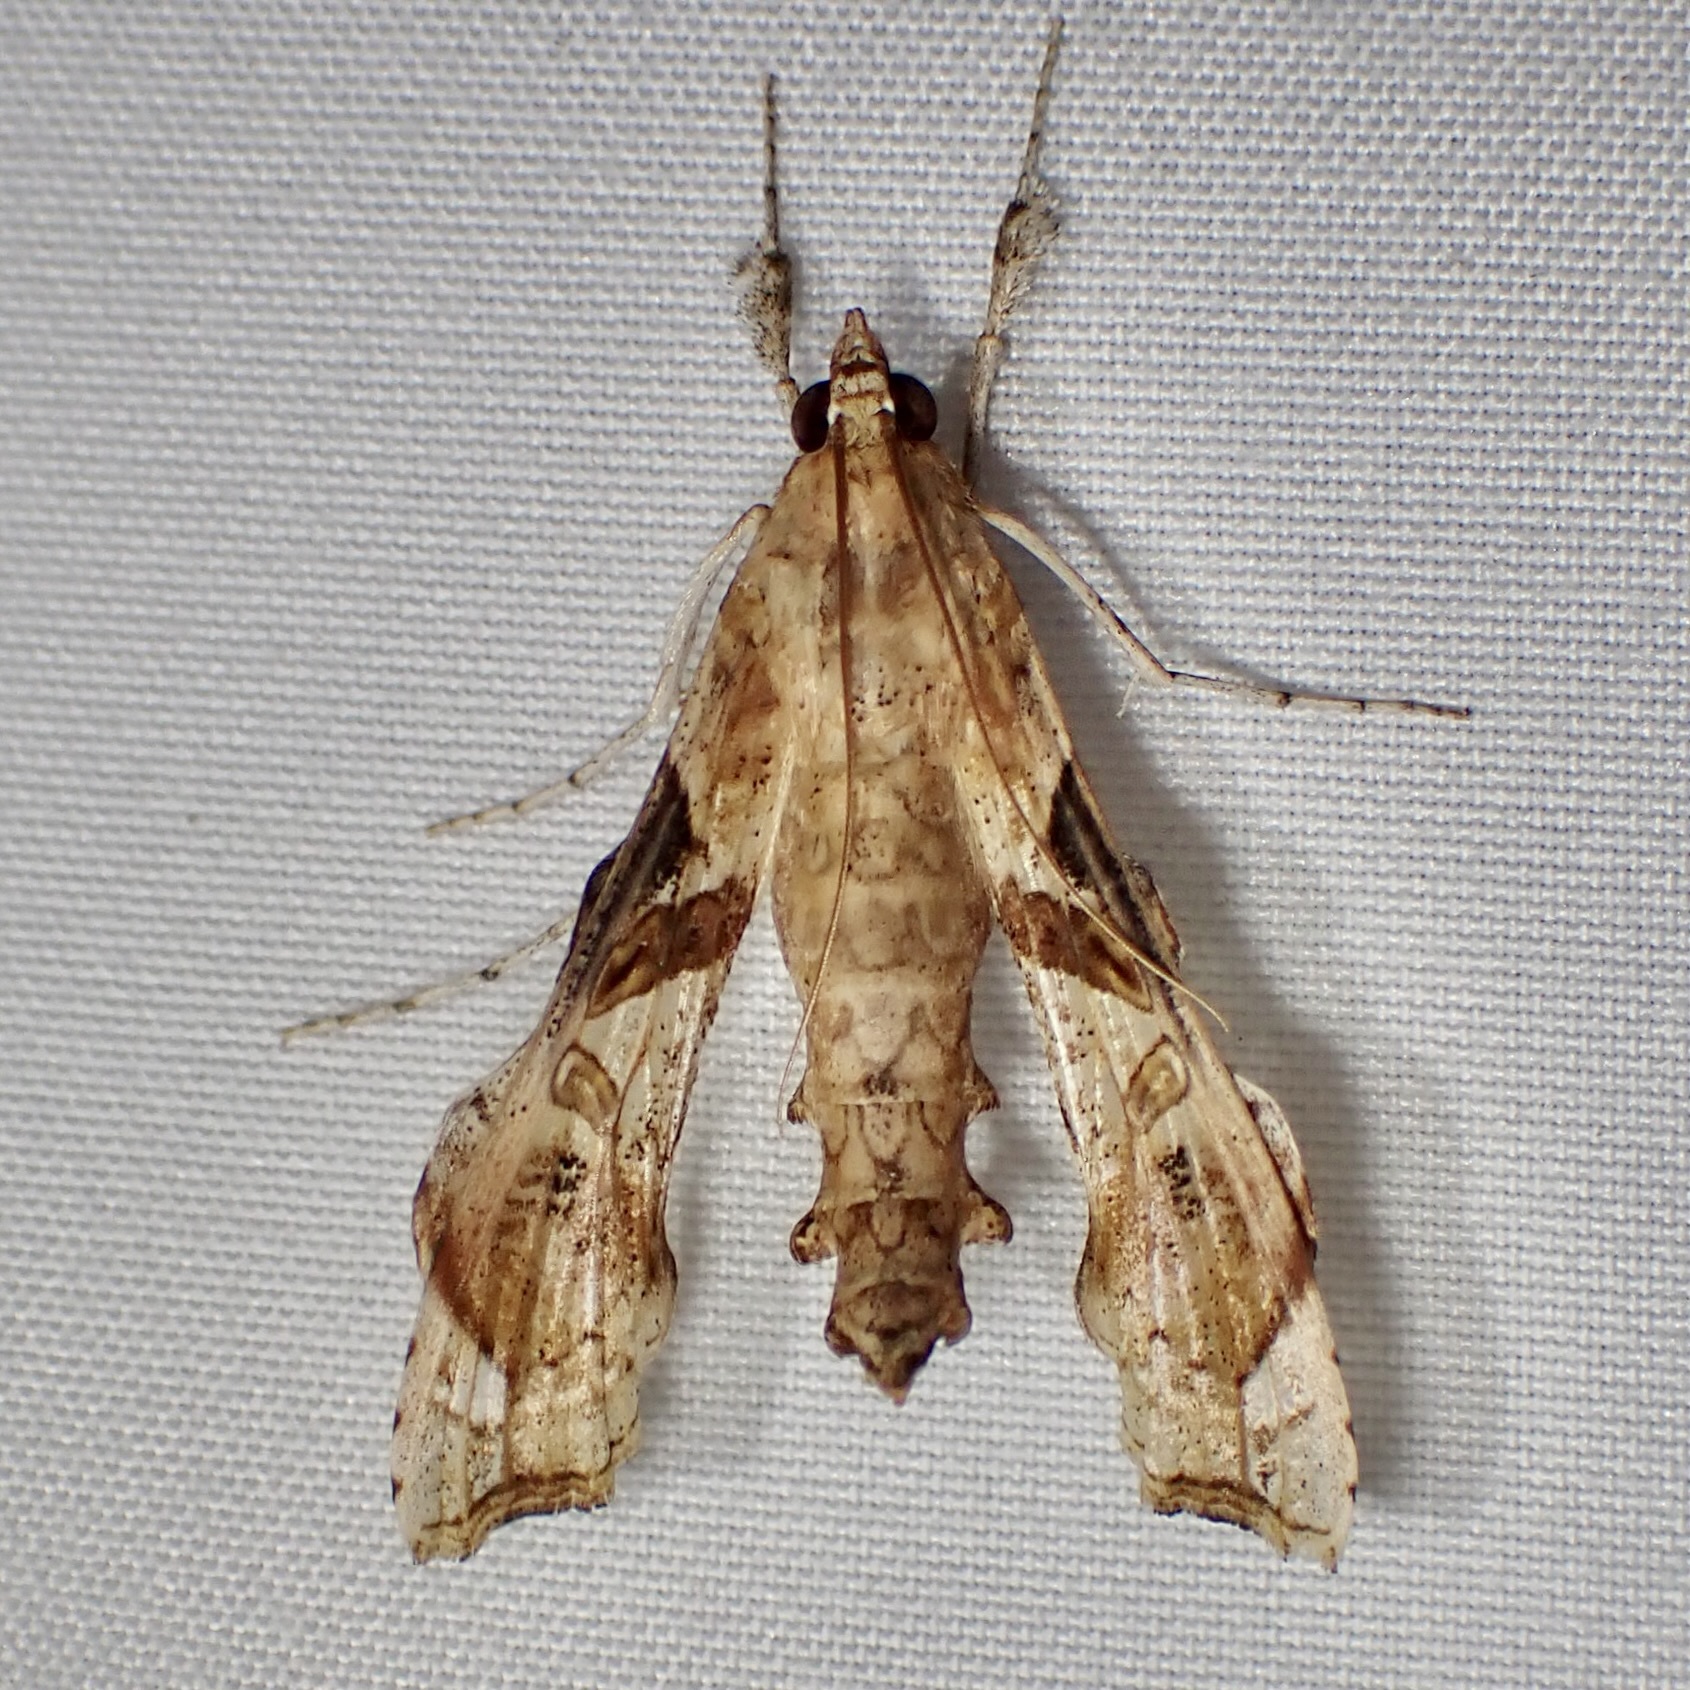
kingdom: Animalia
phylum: Arthropoda
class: Insecta
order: Lepidoptera
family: Crambidae
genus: Terastia
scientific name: Terastia meticulosalis
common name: Moth
